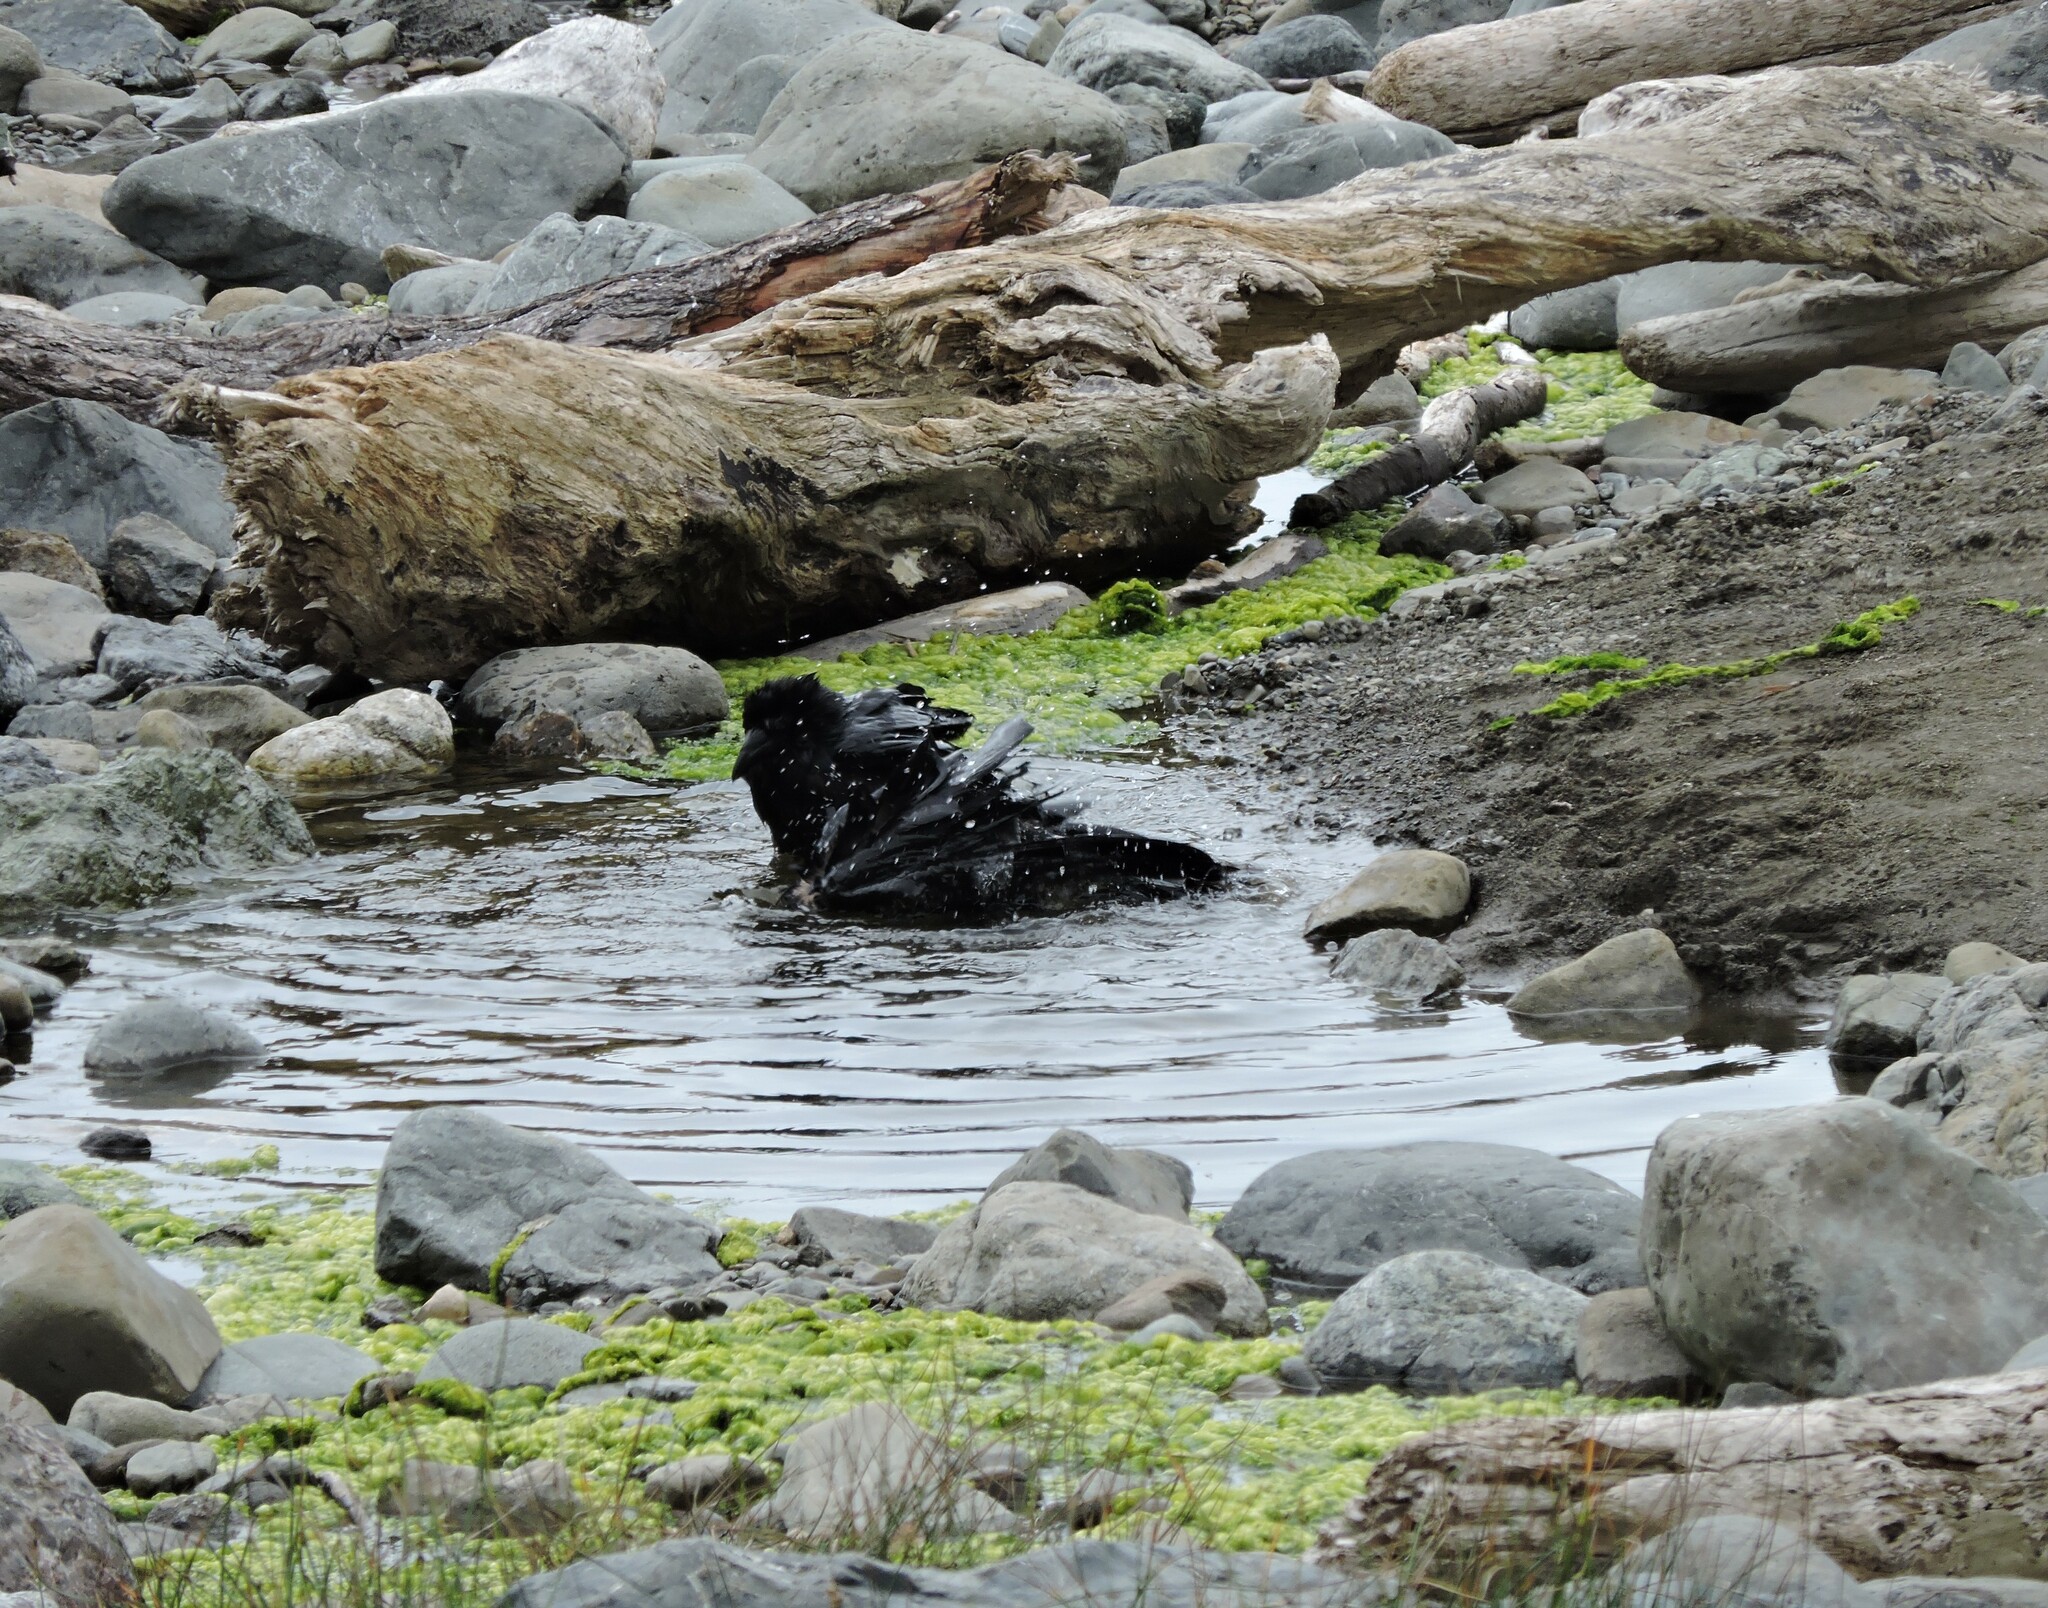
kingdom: Animalia
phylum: Chordata
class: Aves
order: Passeriformes
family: Corvidae
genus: Corvus
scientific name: Corvus corax
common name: Common raven
